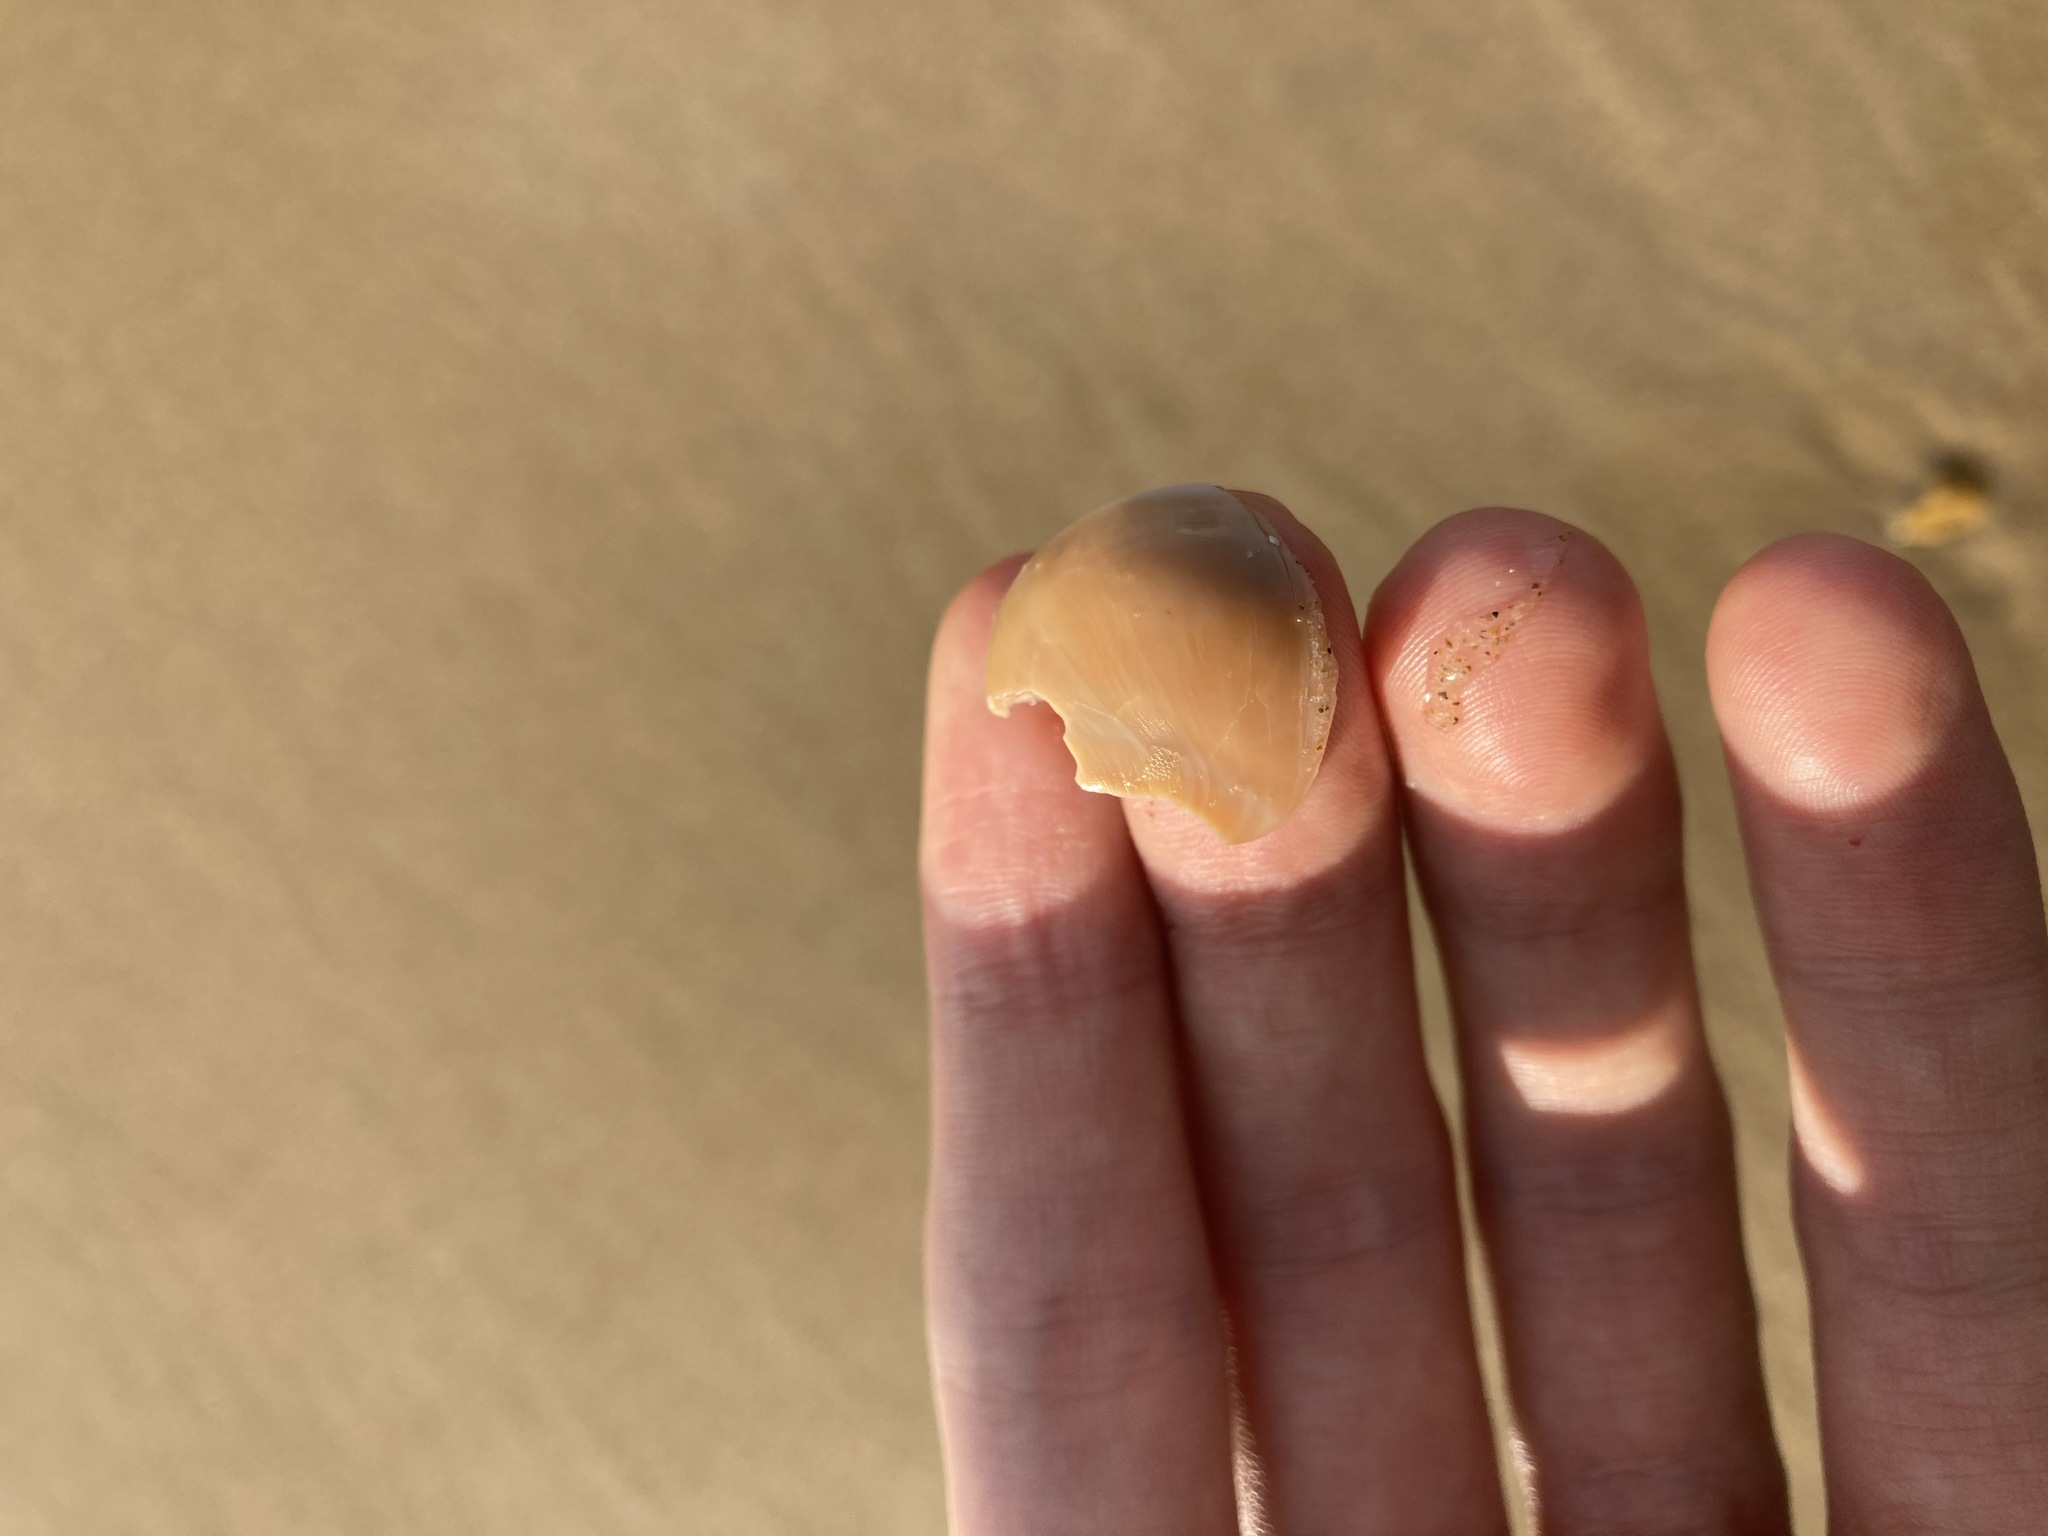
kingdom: Animalia
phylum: Mollusca
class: Gastropoda
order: Littorinimorpha
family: Naticidae
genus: Neverita
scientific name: Neverita didyma
